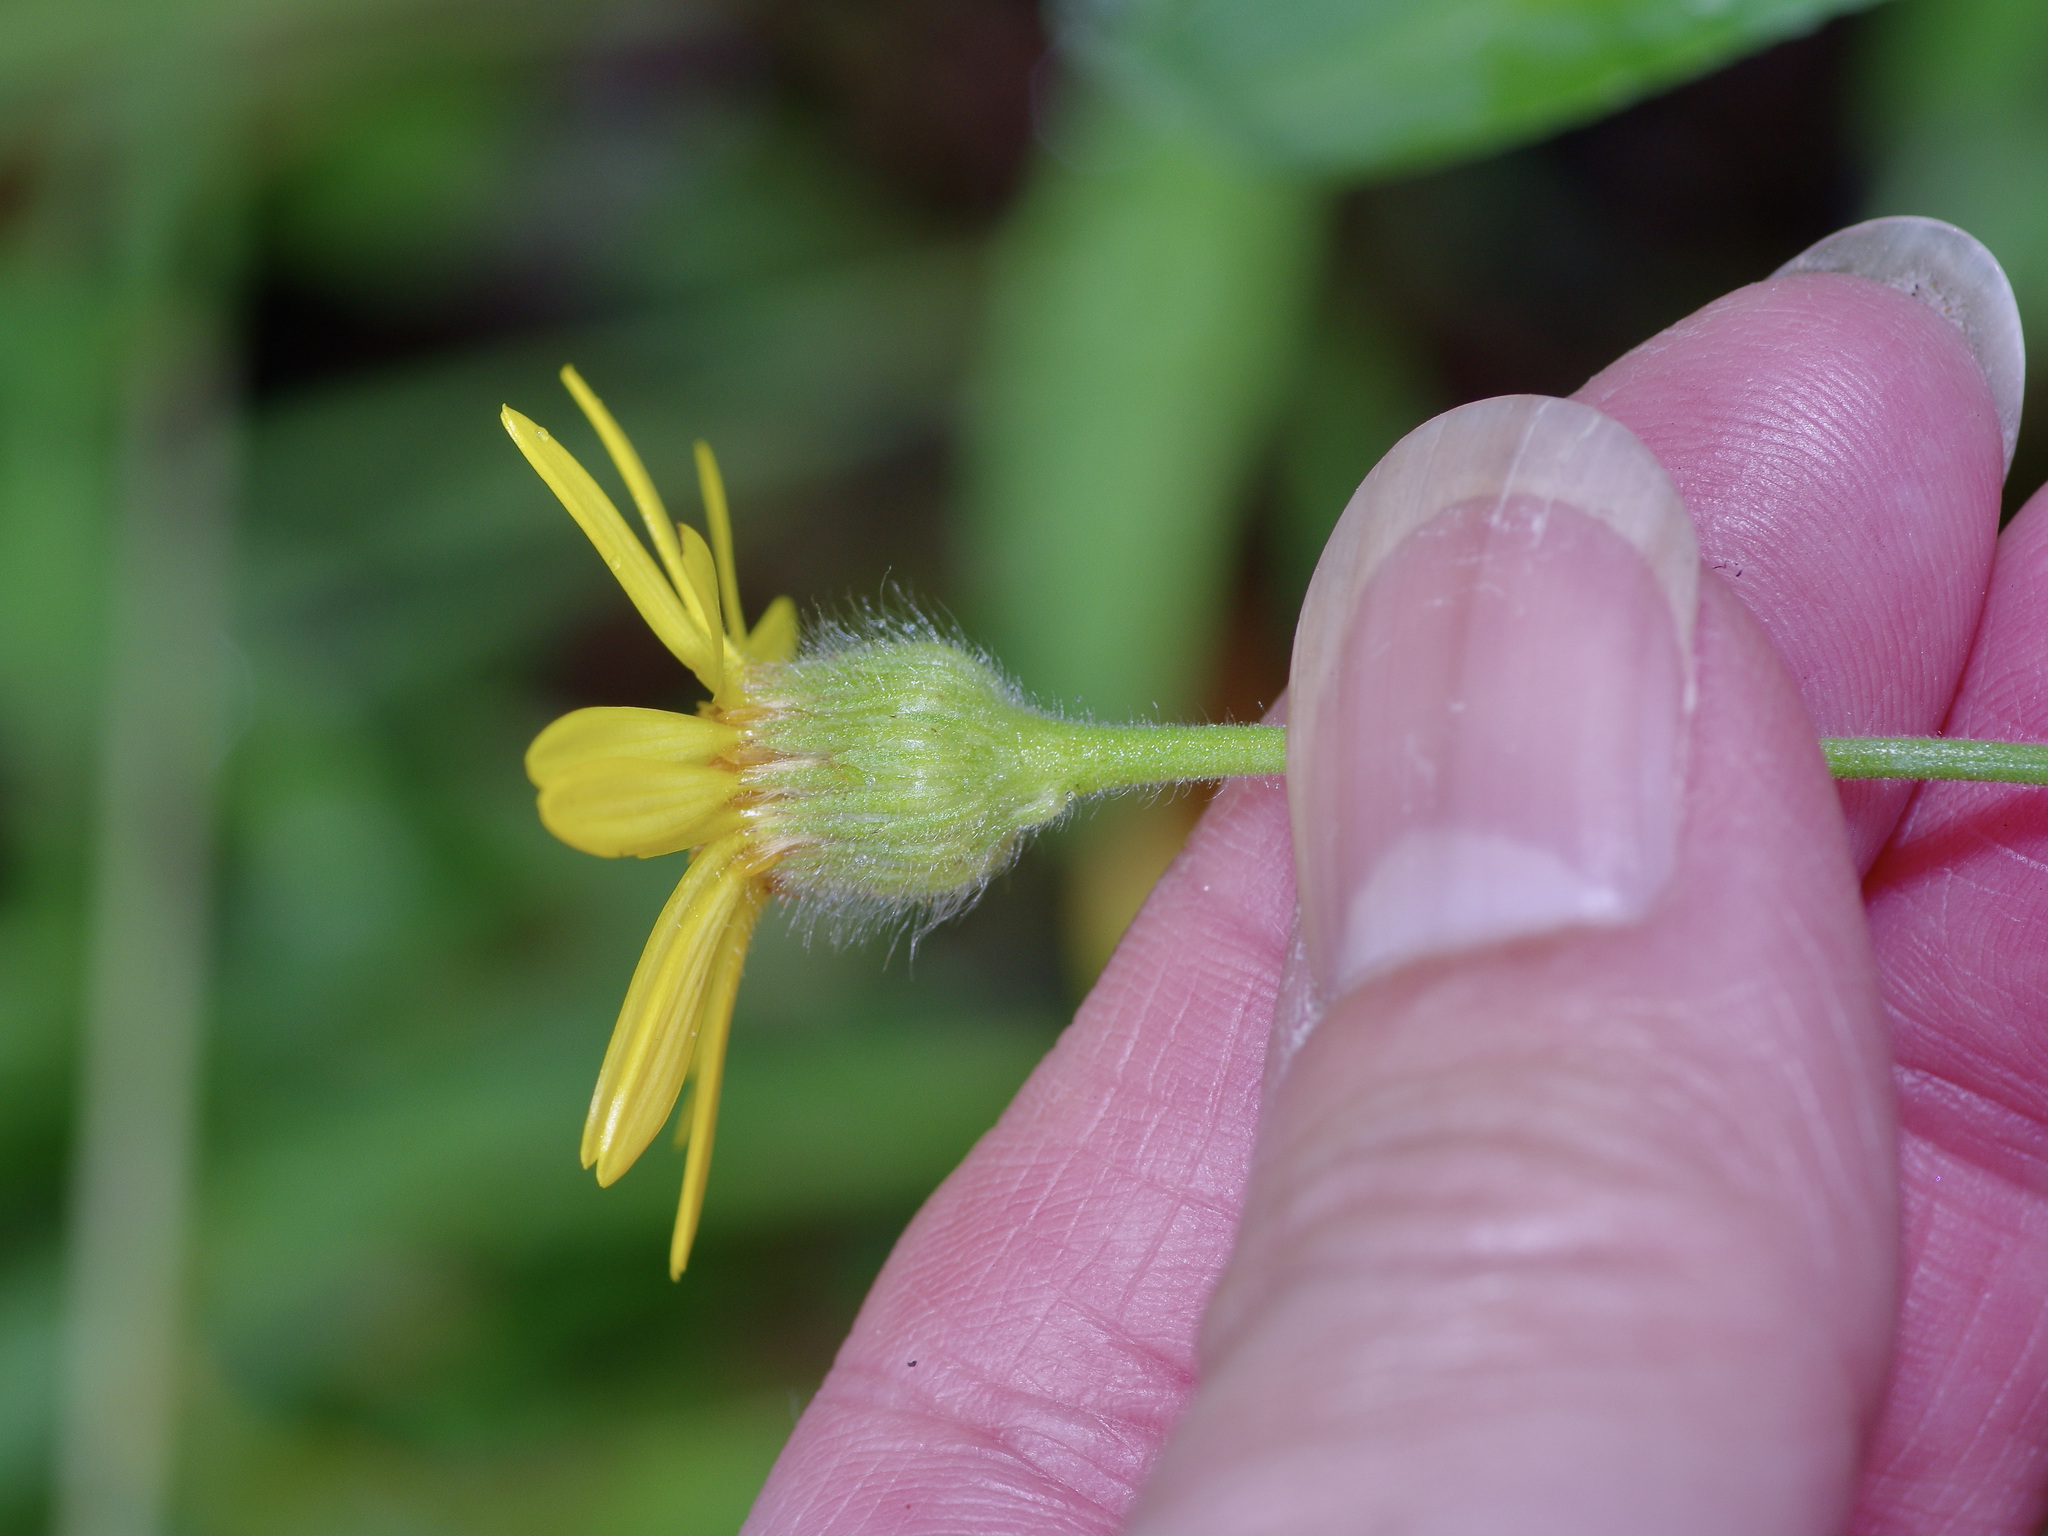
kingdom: Plantae
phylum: Tracheophyta
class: Magnoliopsida
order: Asterales
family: Asteraceae
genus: Bradburia
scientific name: Bradburia pilosa
